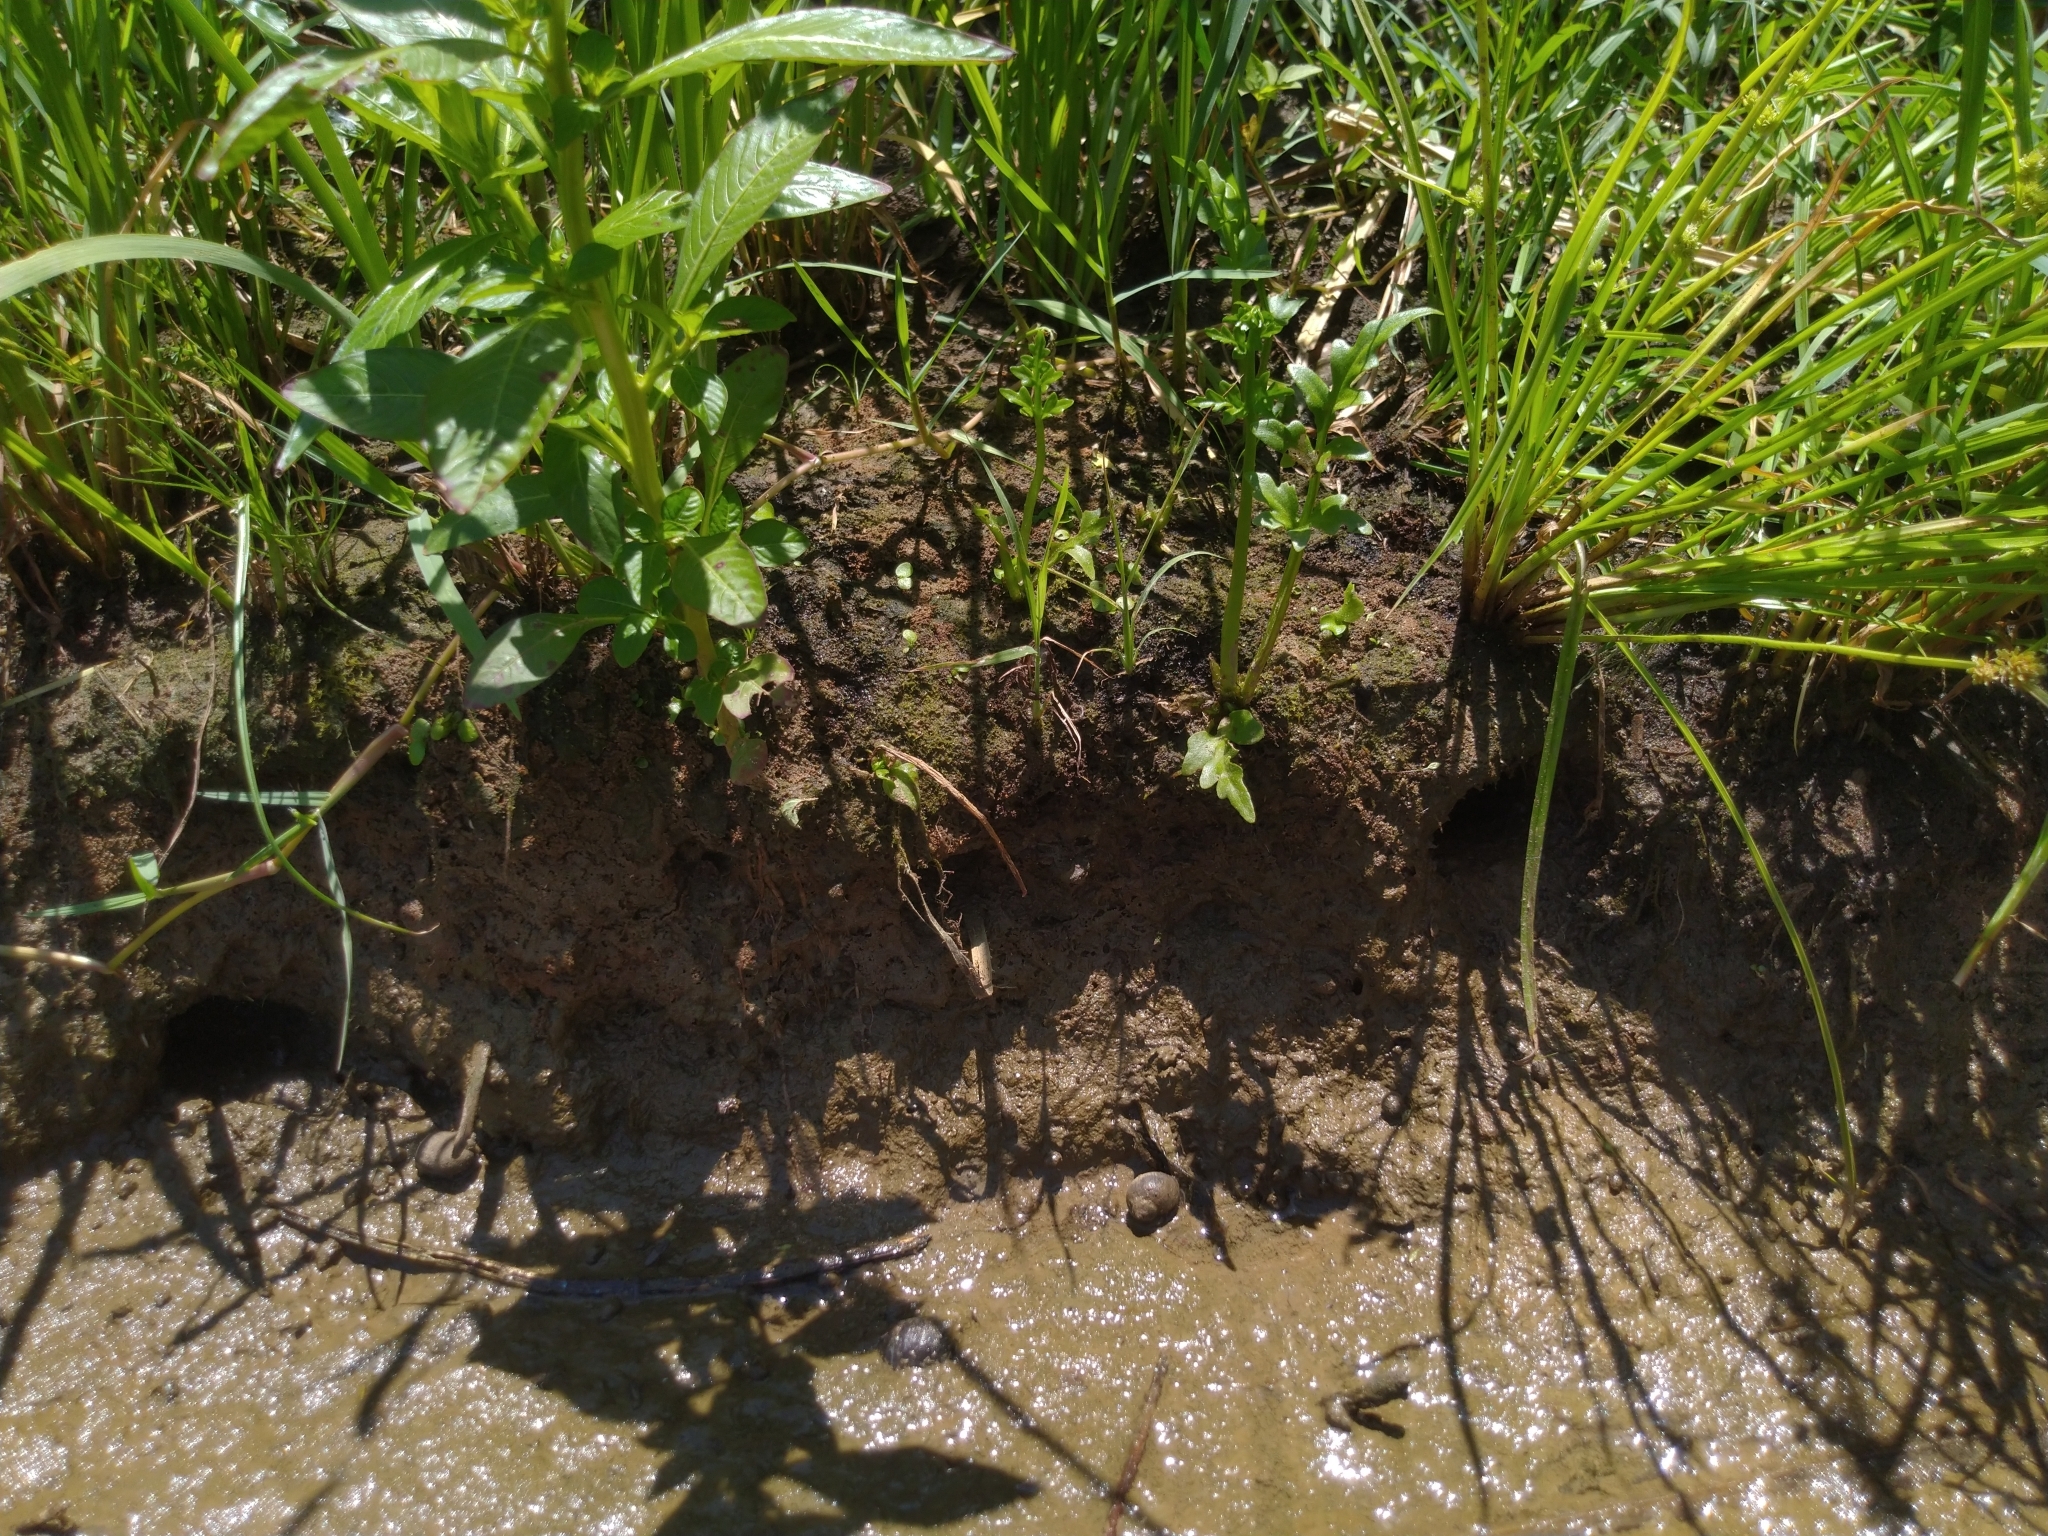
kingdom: Plantae
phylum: Tracheophyta
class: Polypodiopsida
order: Polypodiales
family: Pteridaceae
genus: Ceratopteris
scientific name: Ceratopteris thalictroides
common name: Water fern
